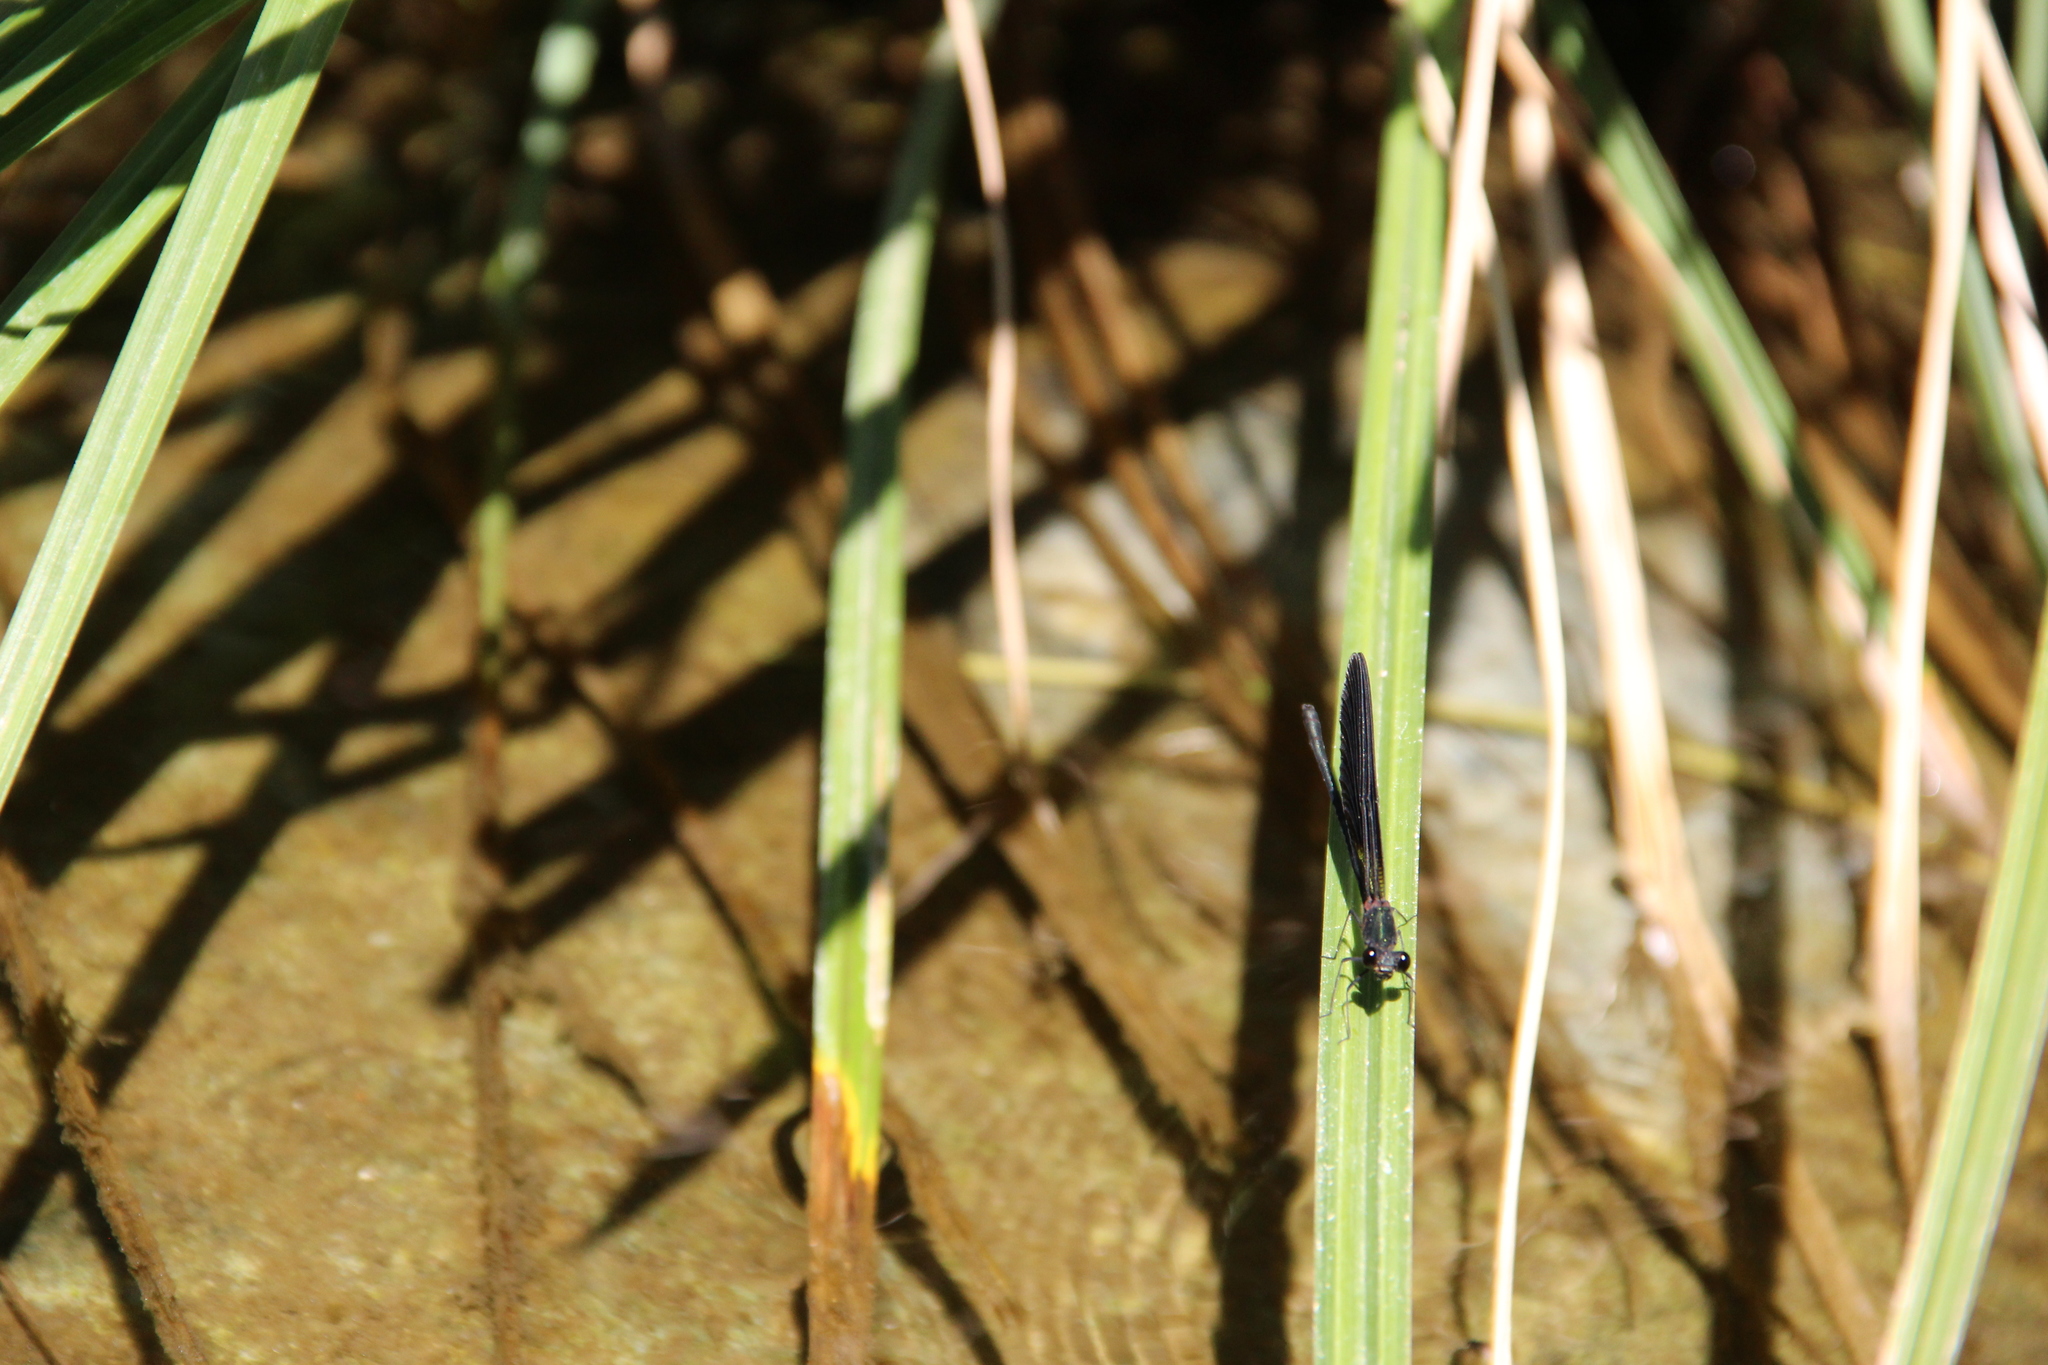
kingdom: Animalia
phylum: Arthropoda
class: Insecta
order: Odonata
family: Calopterygidae
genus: Calopteryx
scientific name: Calopteryx haemorrhoidalis
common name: Copper demoiselle
